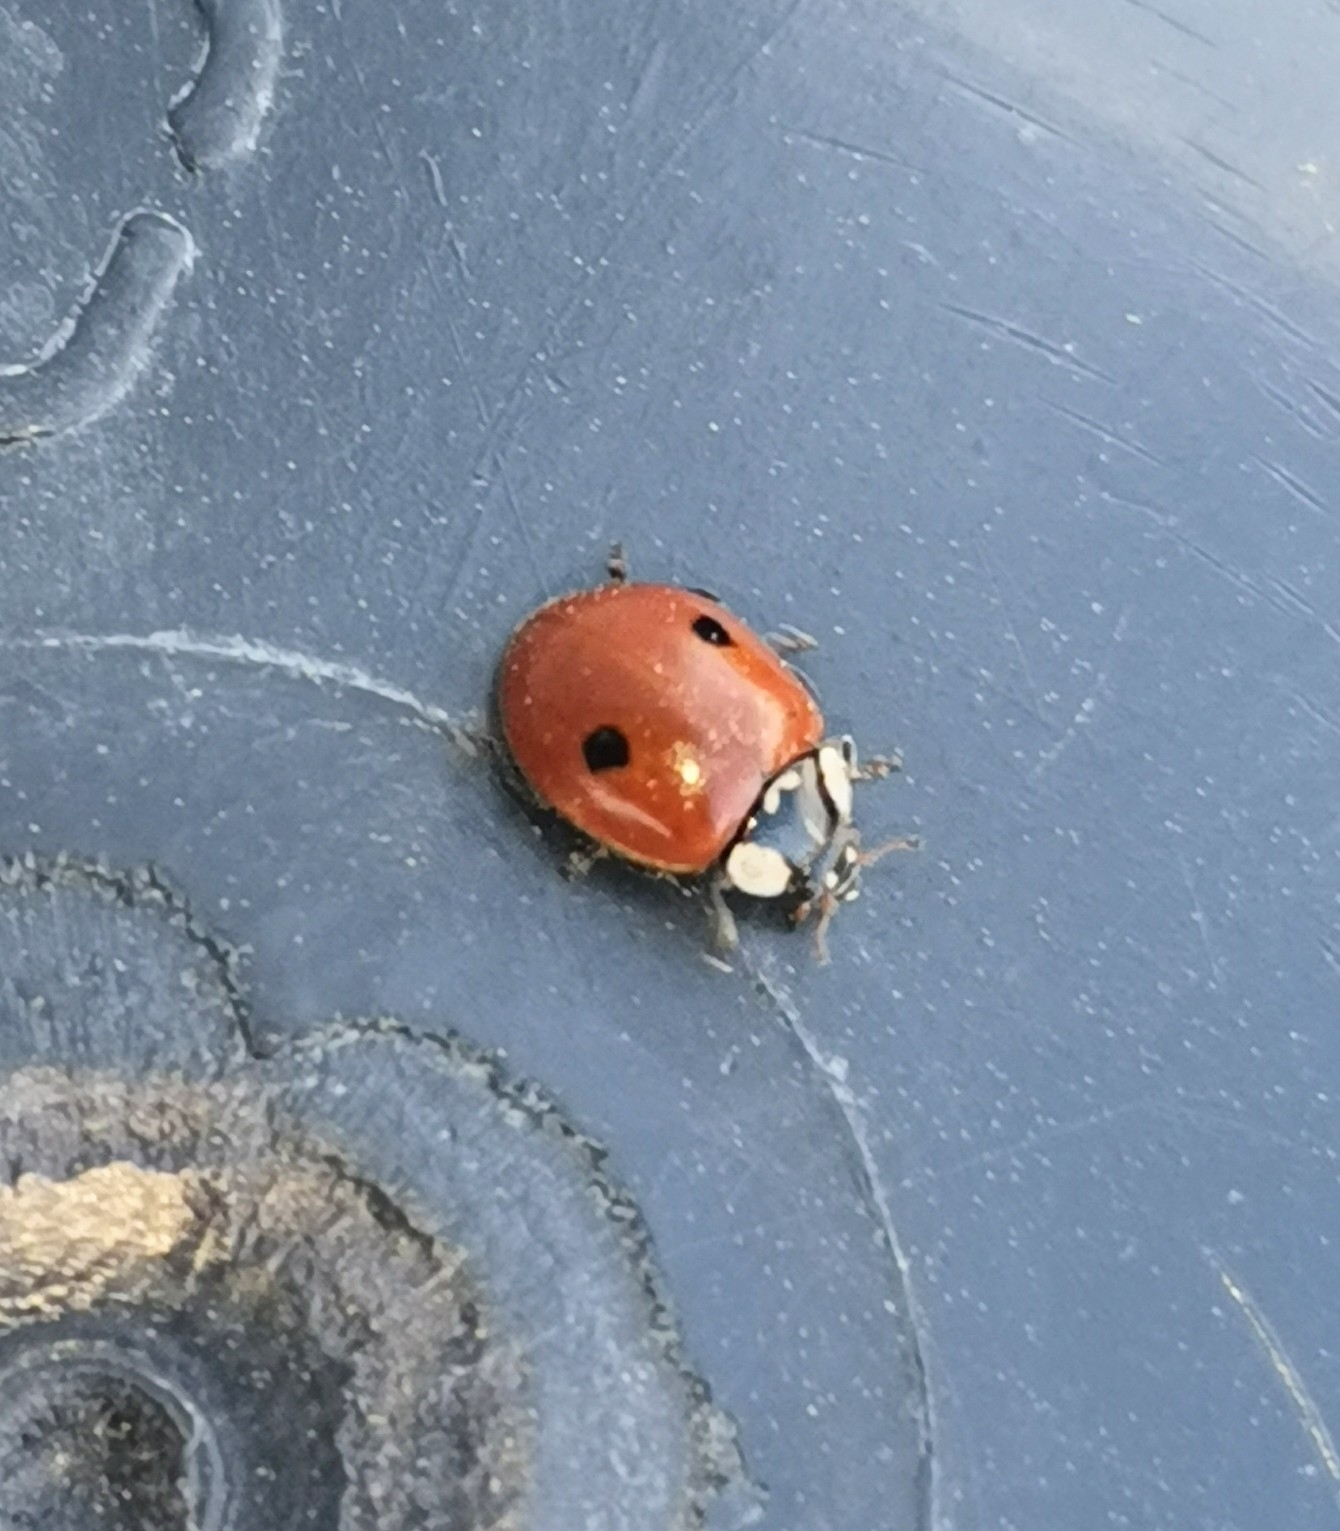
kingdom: Animalia
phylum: Arthropoda
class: Insecta
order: Coleoptera
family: Coccinellidae
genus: Adalia
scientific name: Adalia bipunctata
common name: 2-spot ladybird
